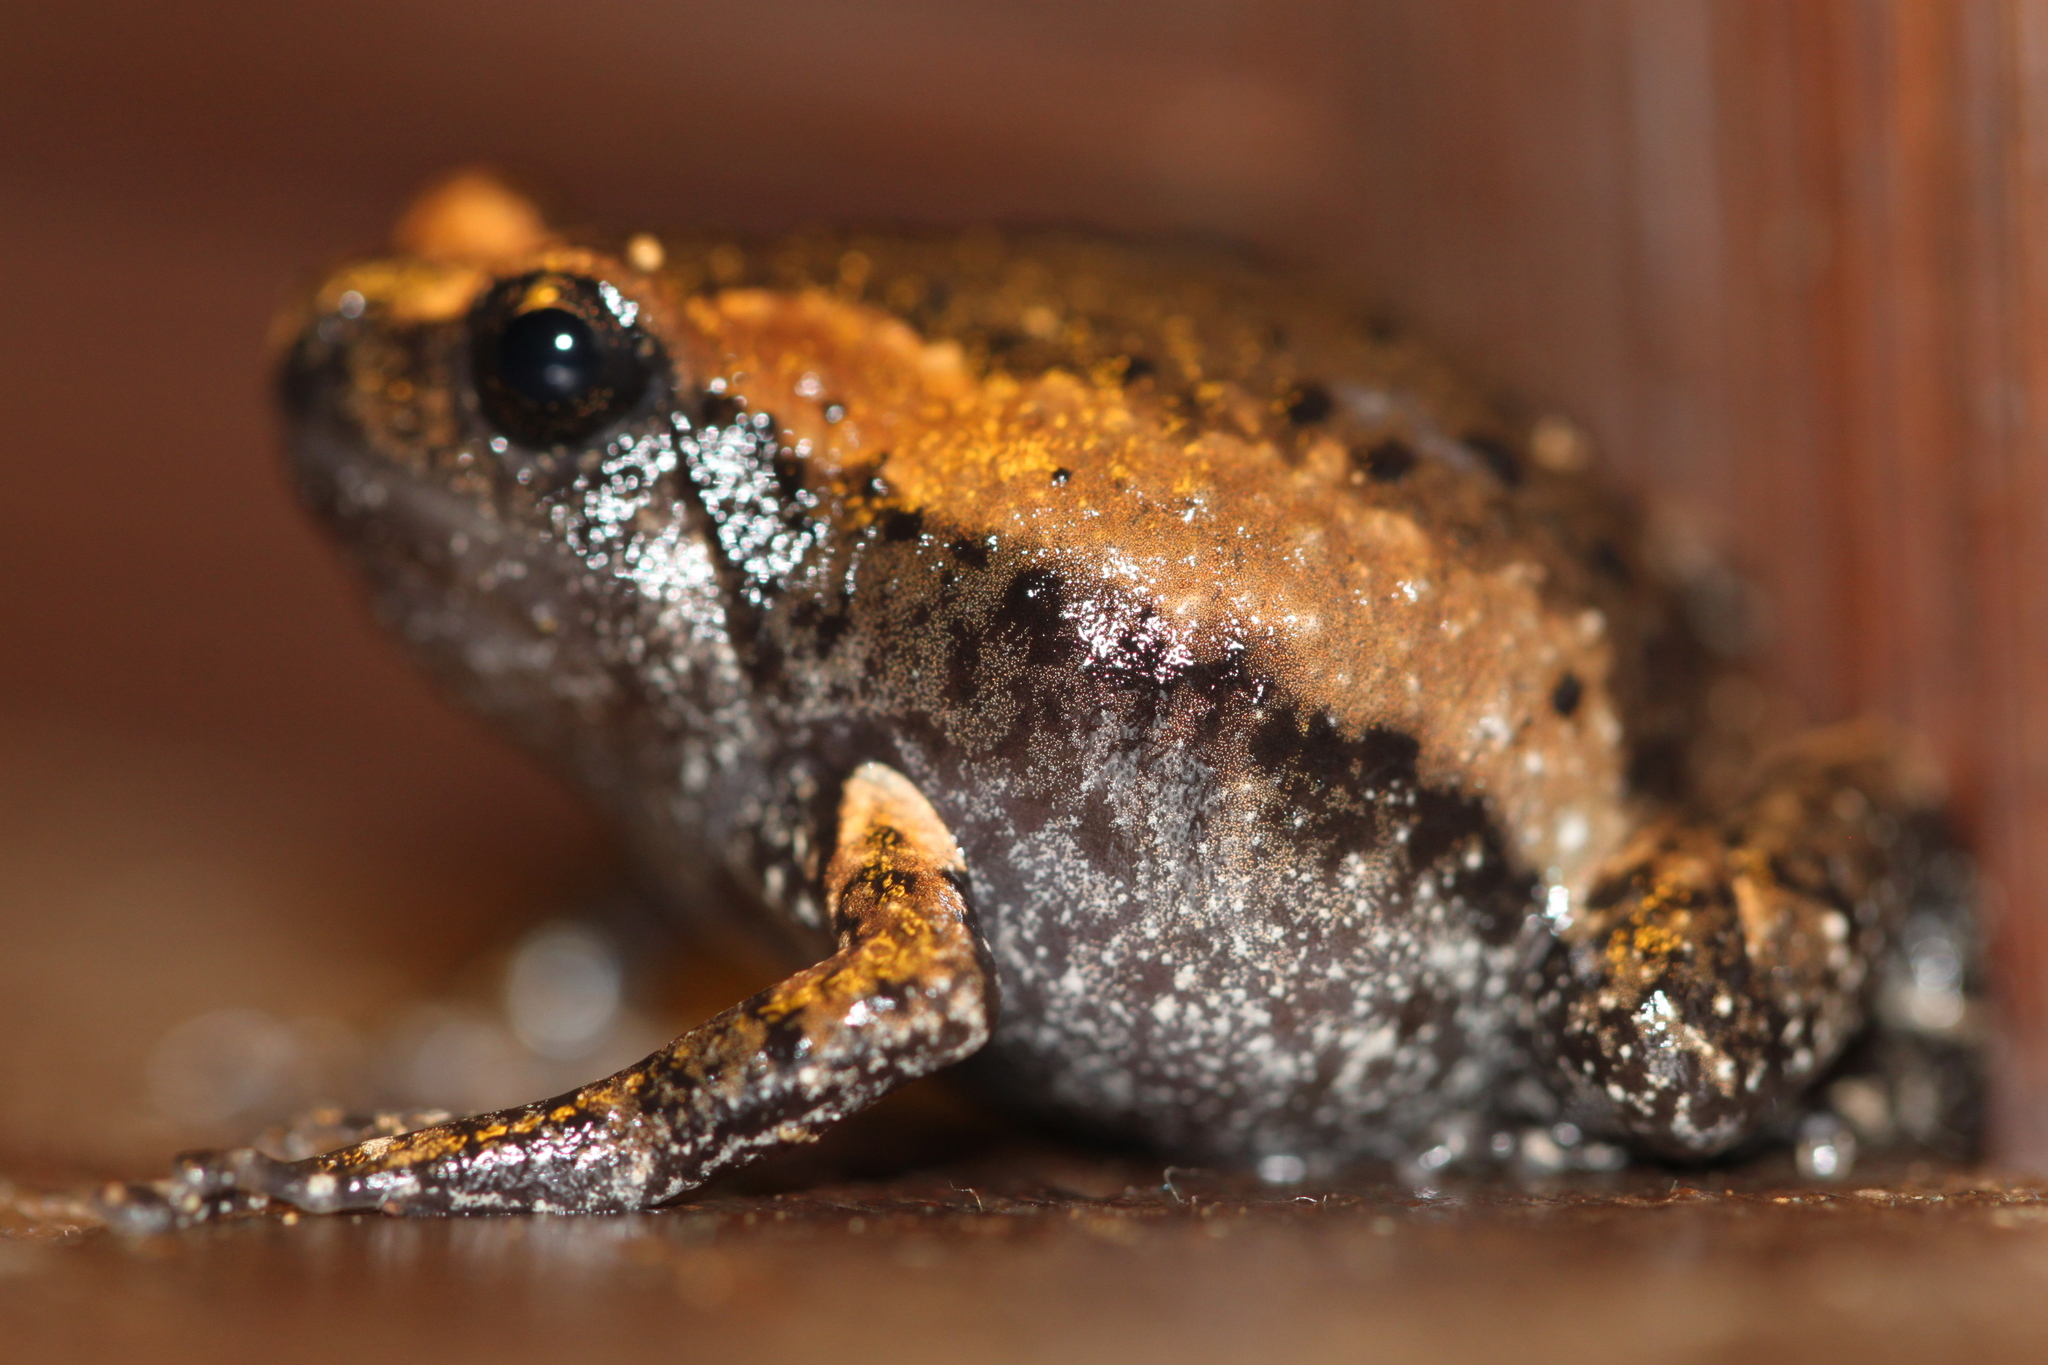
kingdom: Animalia
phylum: Chordata
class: Amphibia
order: Anura
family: Microhylidae
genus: Kaloula
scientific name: Kaloula pulchra
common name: Common,banded bullfrog
